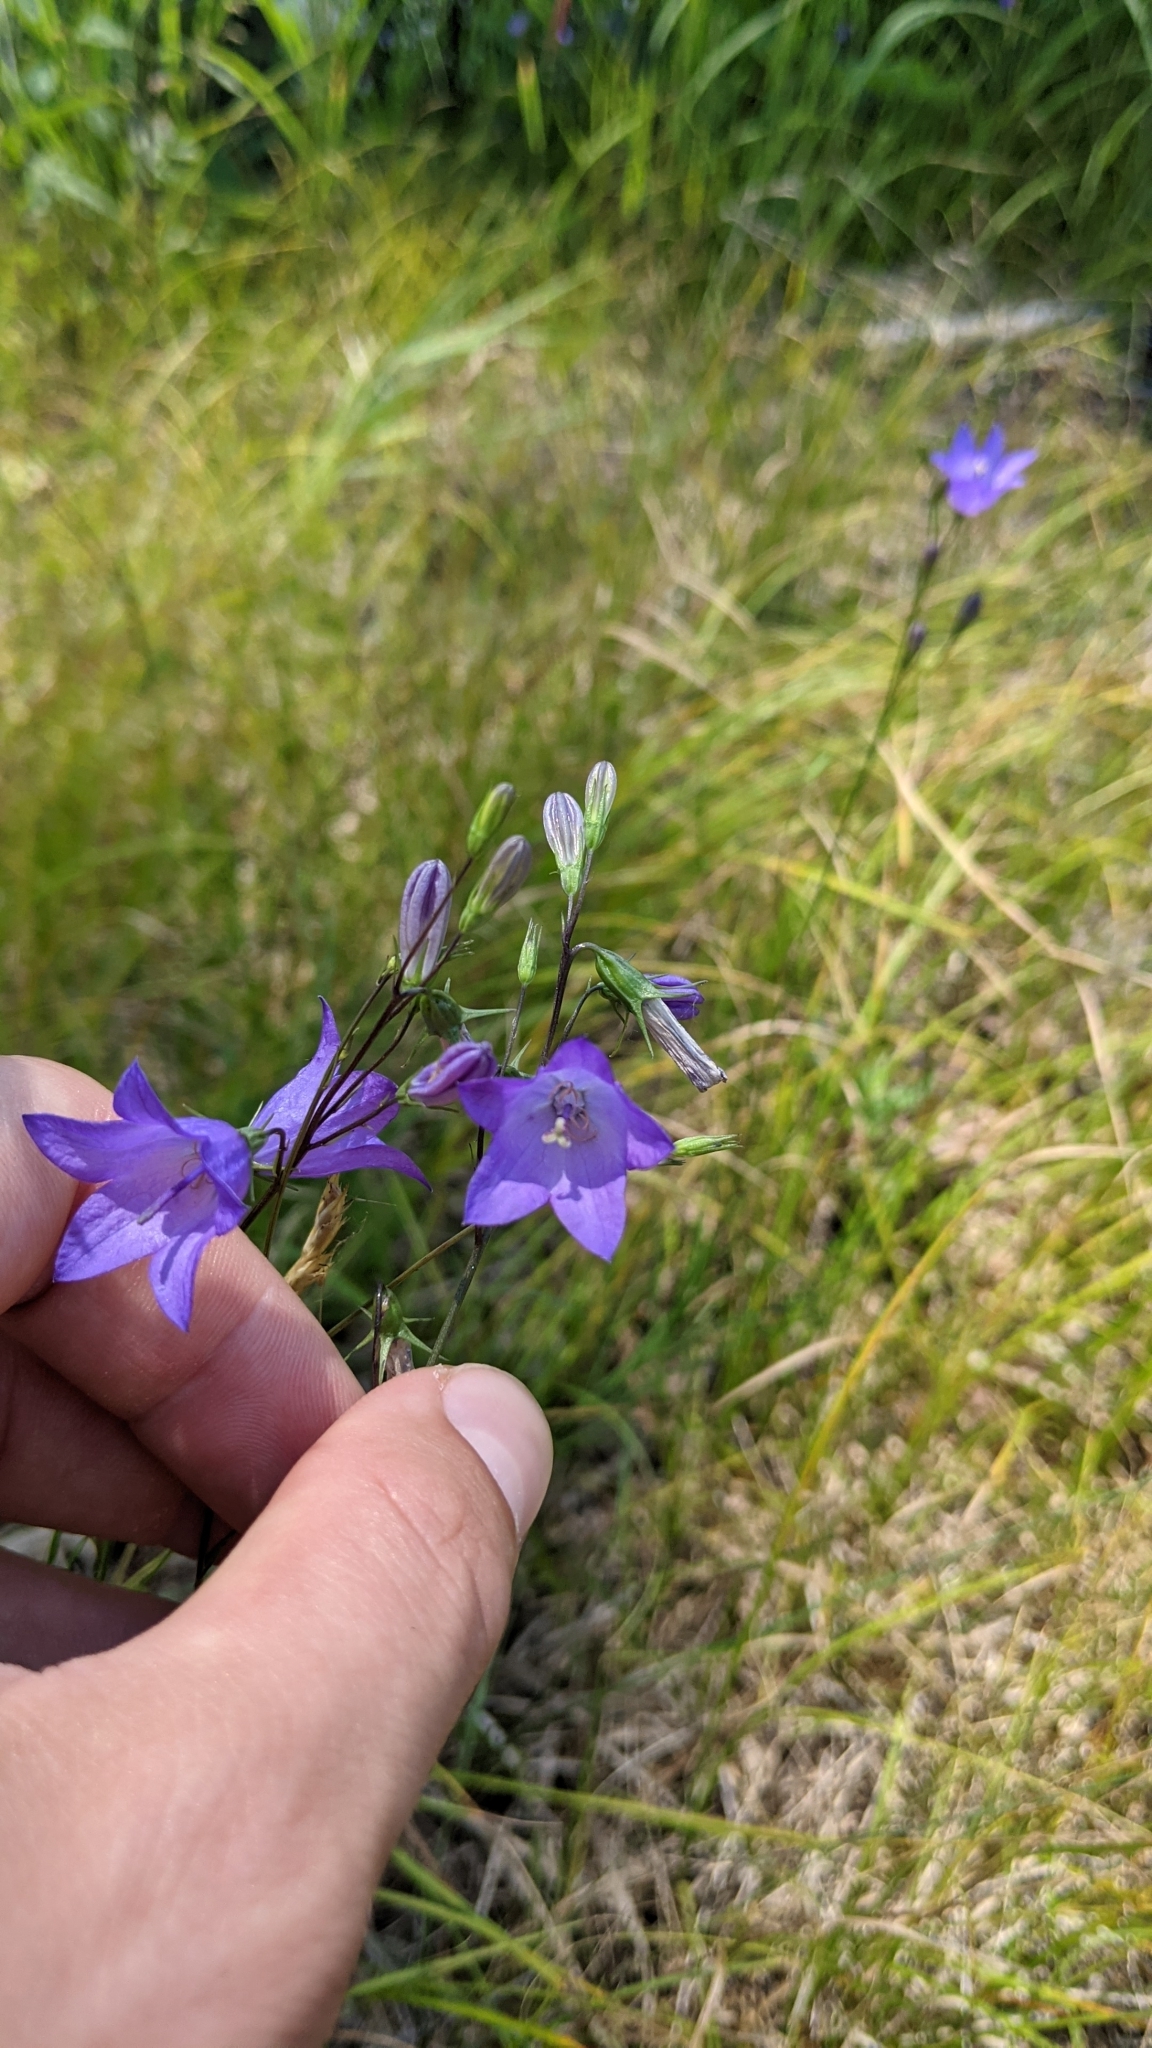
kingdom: Plantae
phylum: Tracheophyta
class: Magnoliopsida
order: Asterales
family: Campanulaceae
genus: Campanula
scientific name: Campanula intercedens
